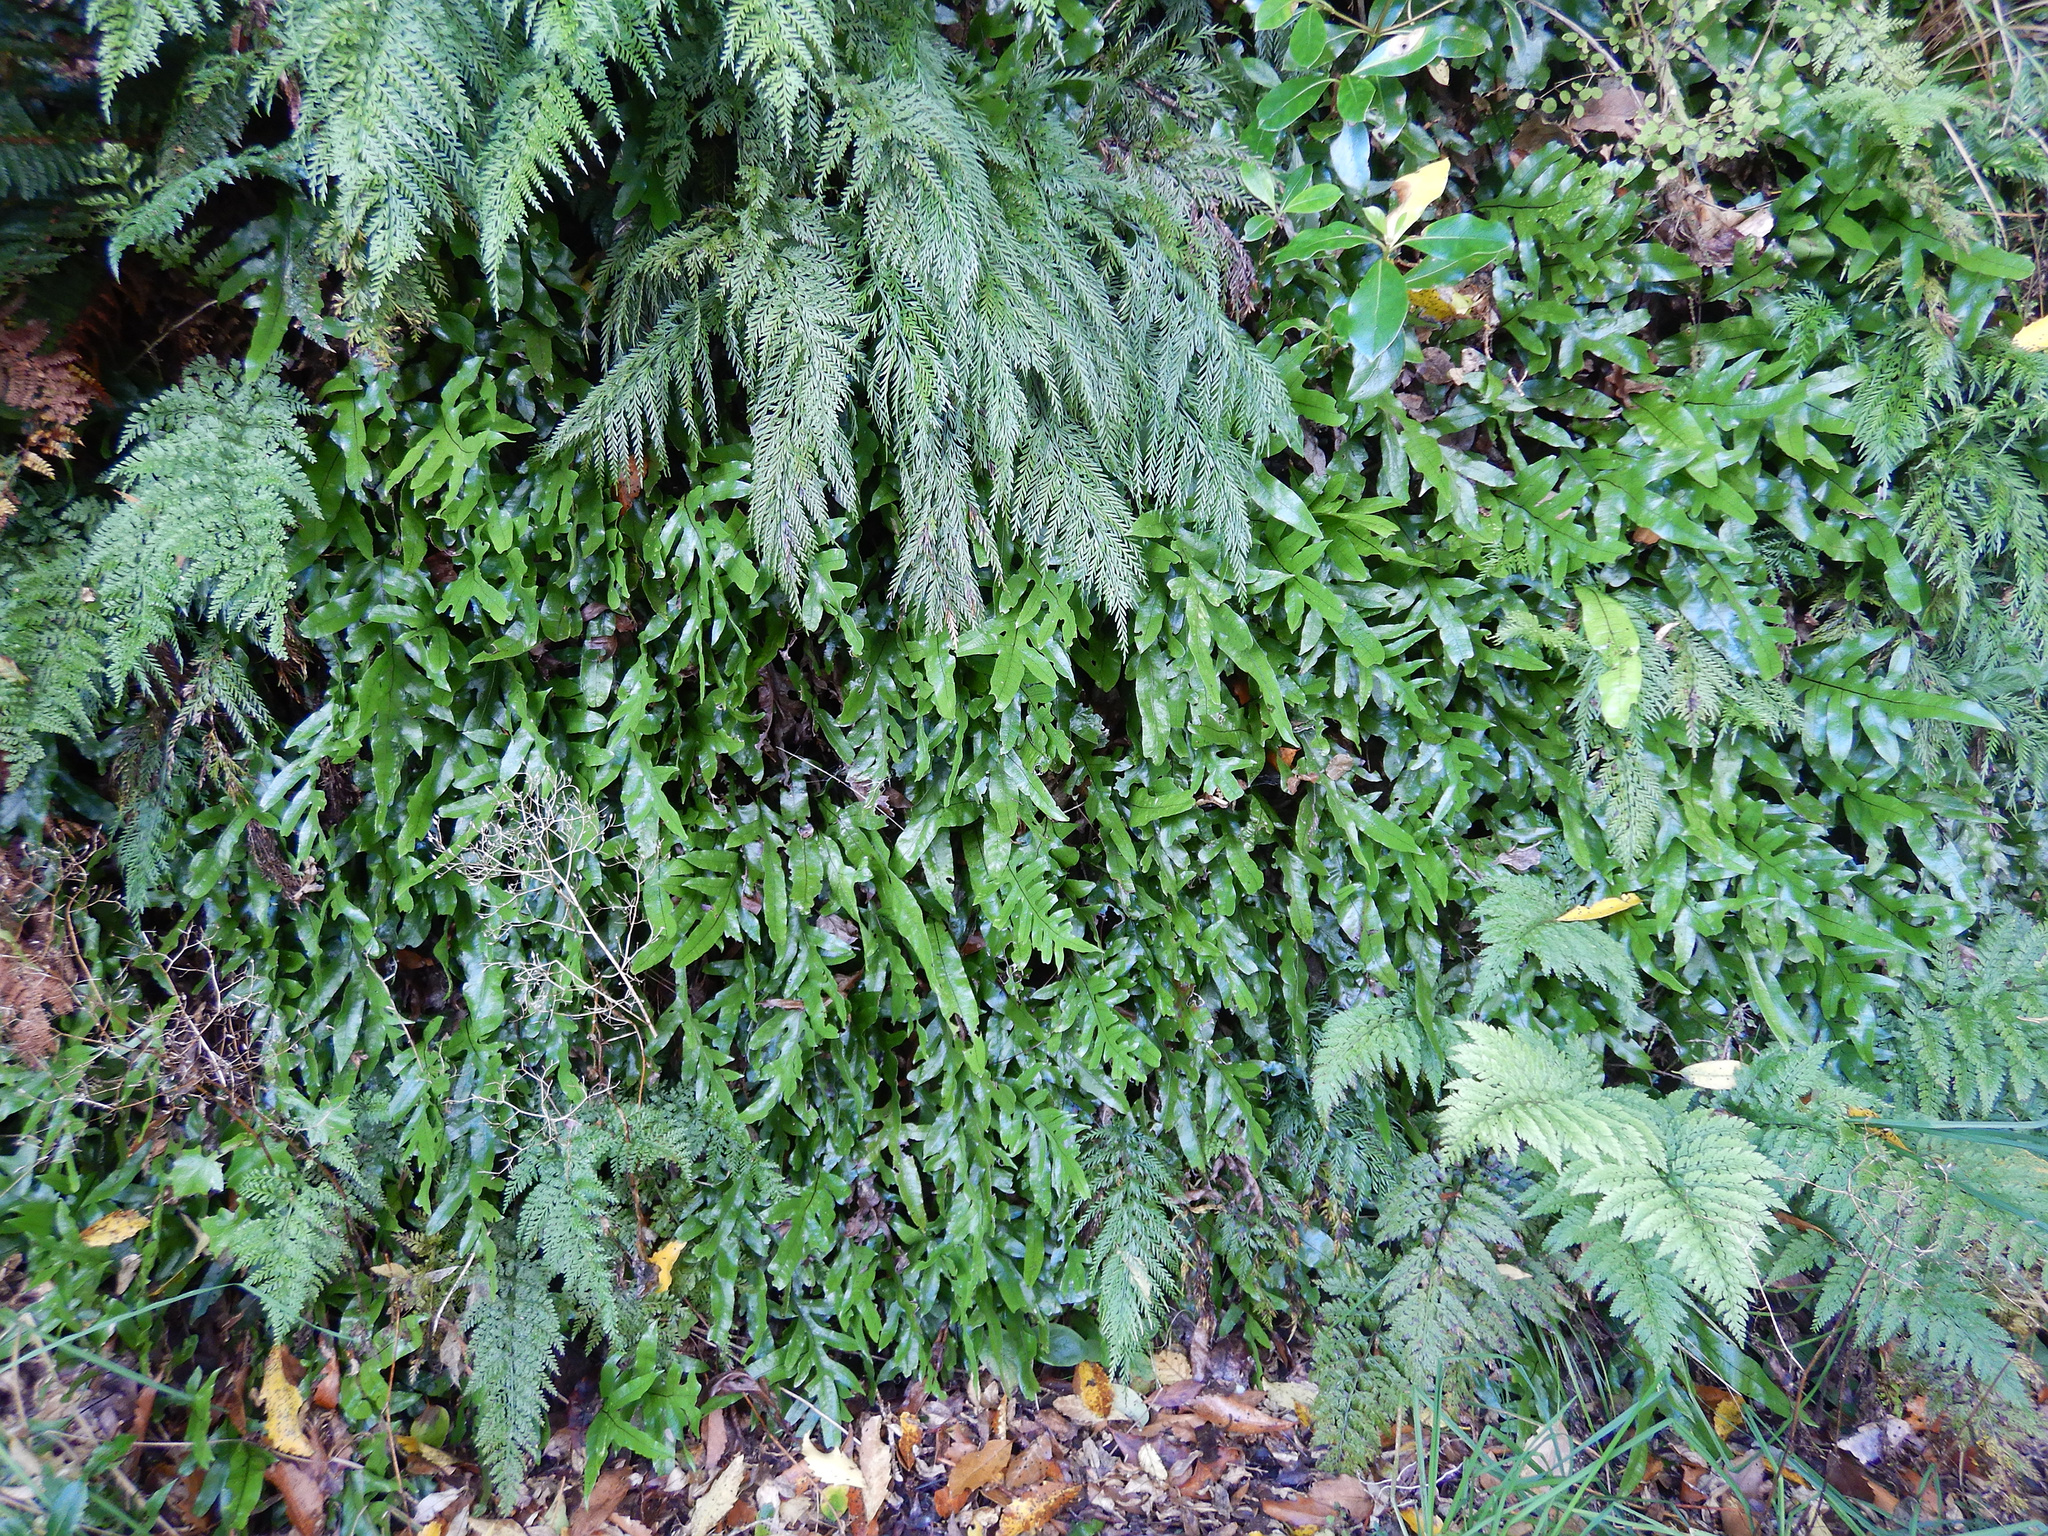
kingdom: Plantae
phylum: Tracheophyta
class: Polypodiopsida
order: Polypodiales
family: Polypodiaceae
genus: Lecanopteris
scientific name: Lecanopteris pustulata
